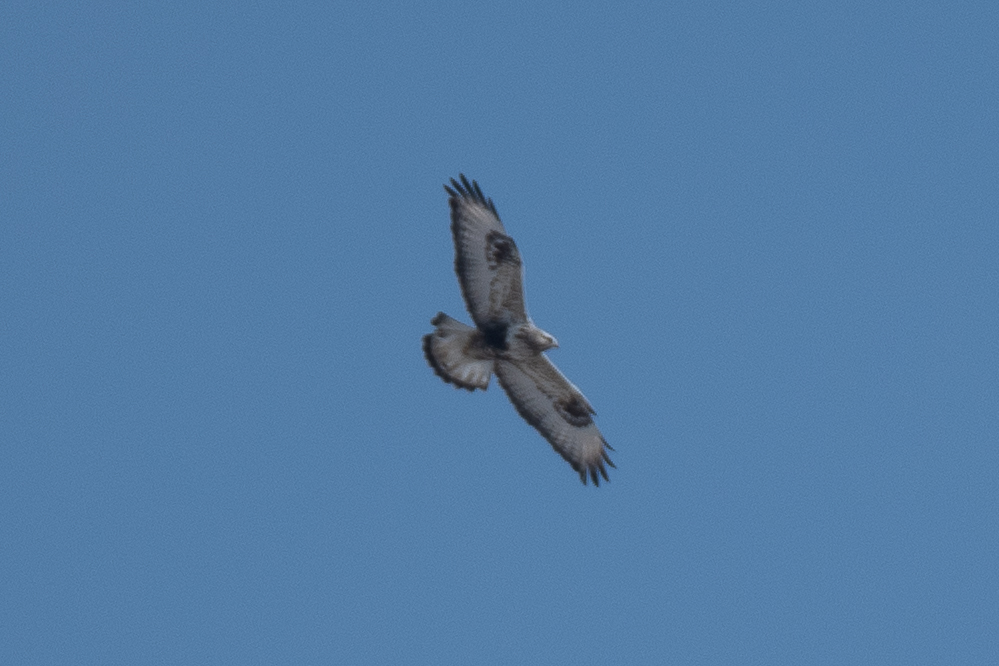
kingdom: Animalia
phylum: Chordata
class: Aves
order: Accipitriformes
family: Accipitridae
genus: Buteo
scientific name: Buteo lagopus
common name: Rough-legged buzzard
